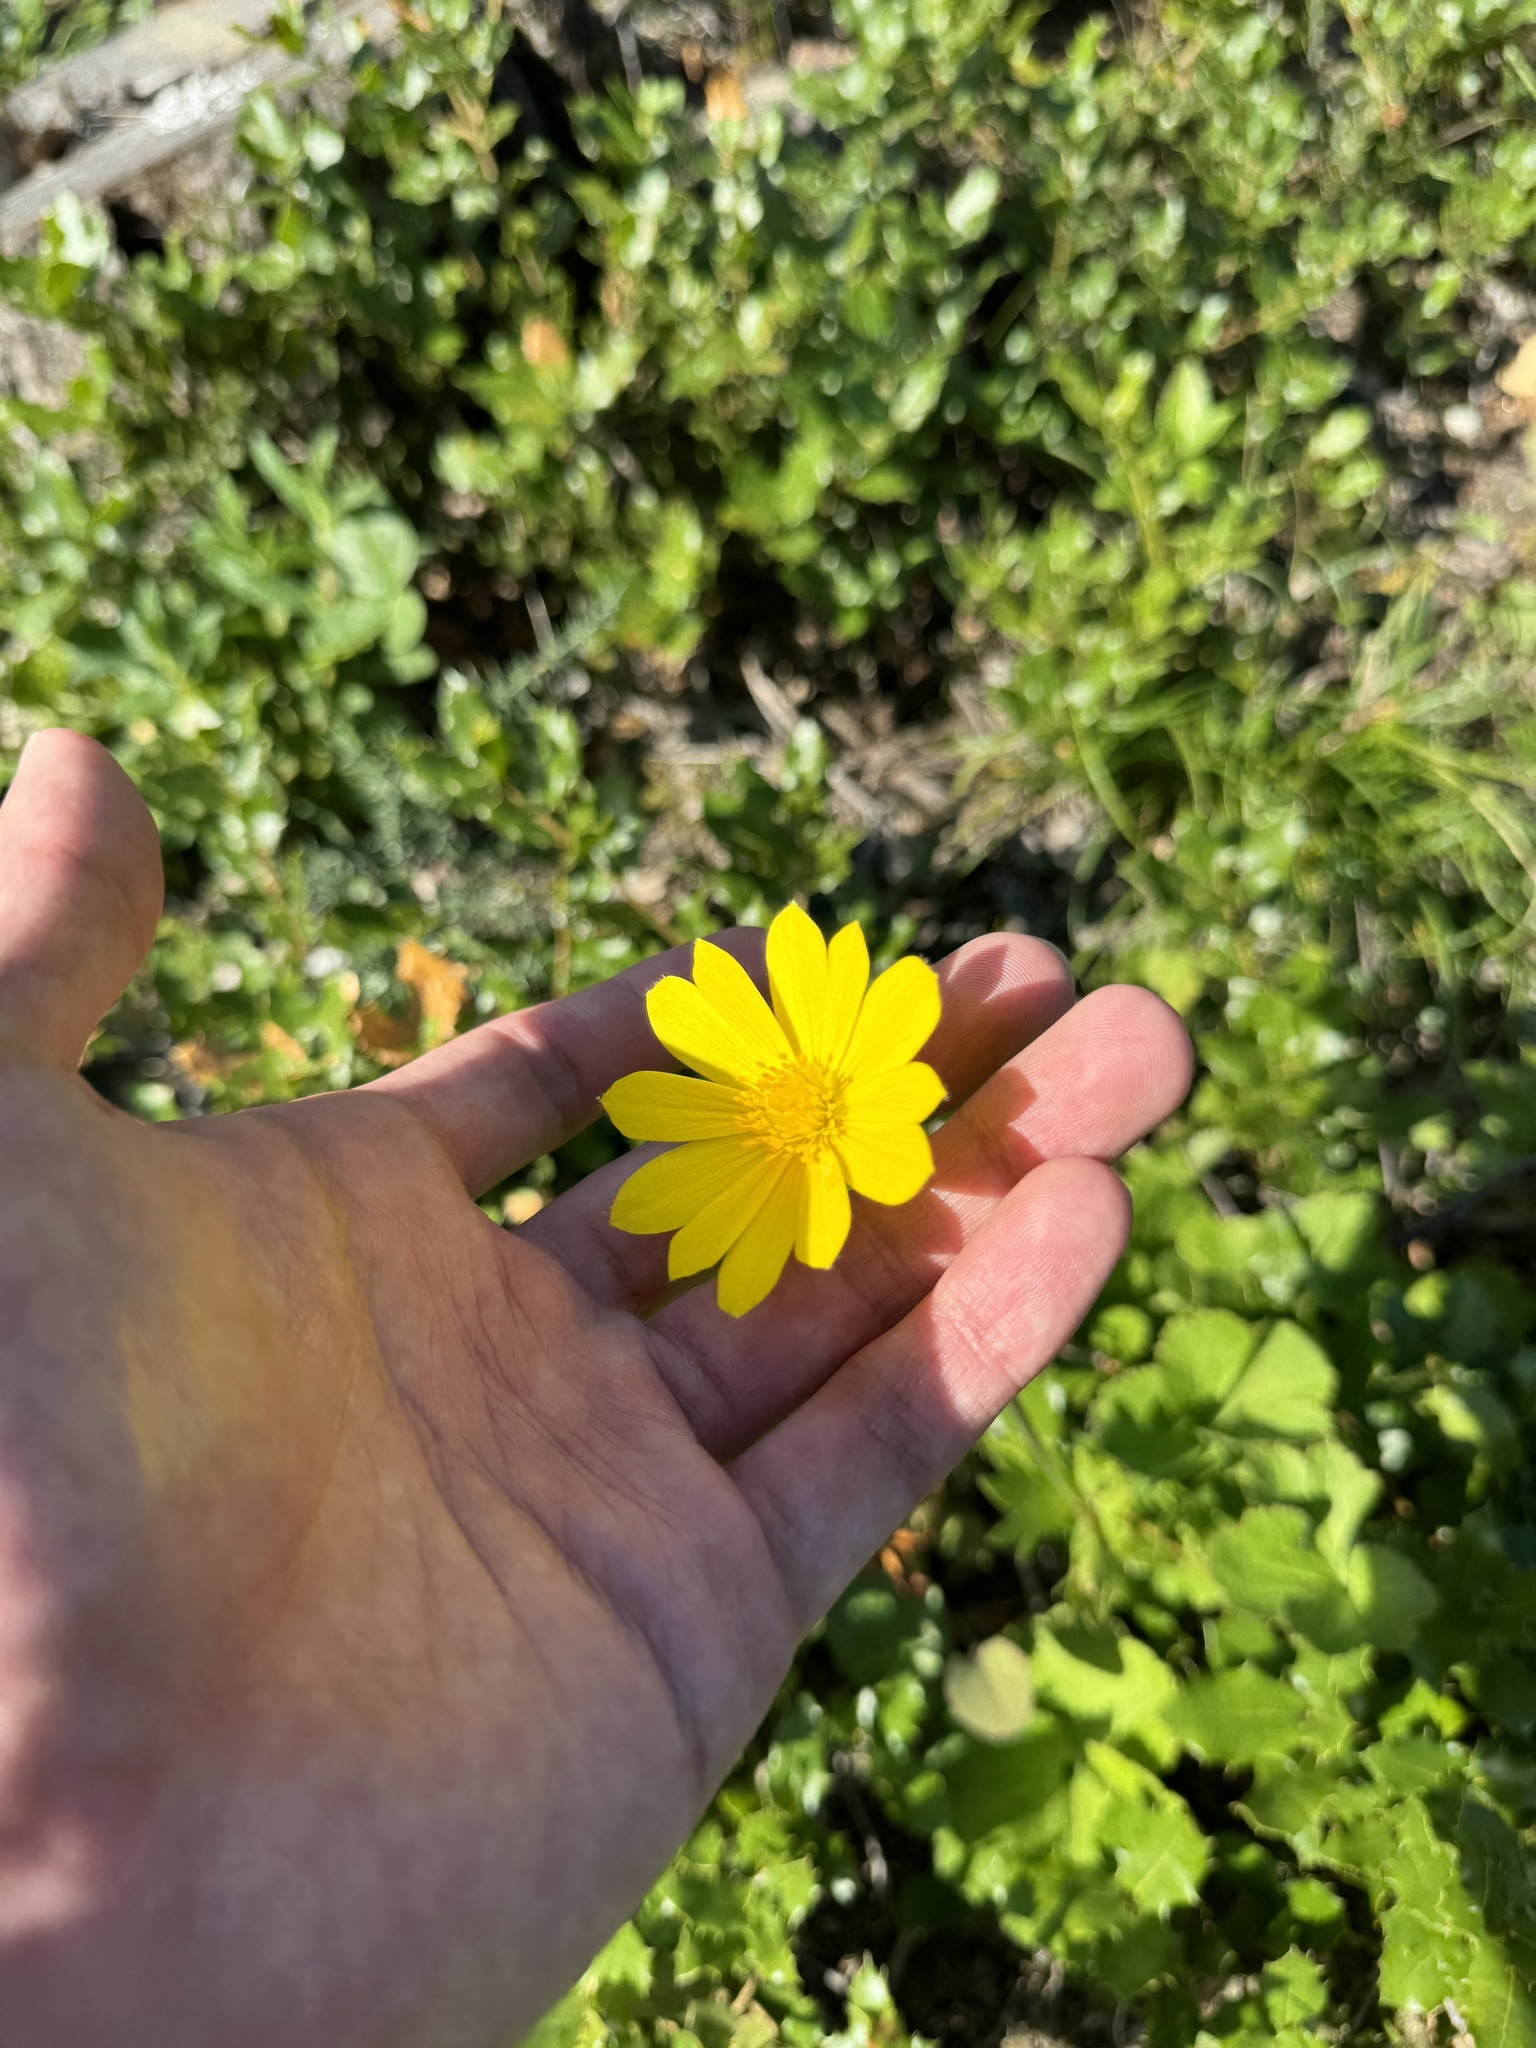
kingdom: Plantae
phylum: Tracheophyta
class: Magnoliopsida
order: Ranunculales
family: Ranunculaceae
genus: Anemone
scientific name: Anemone palmata
